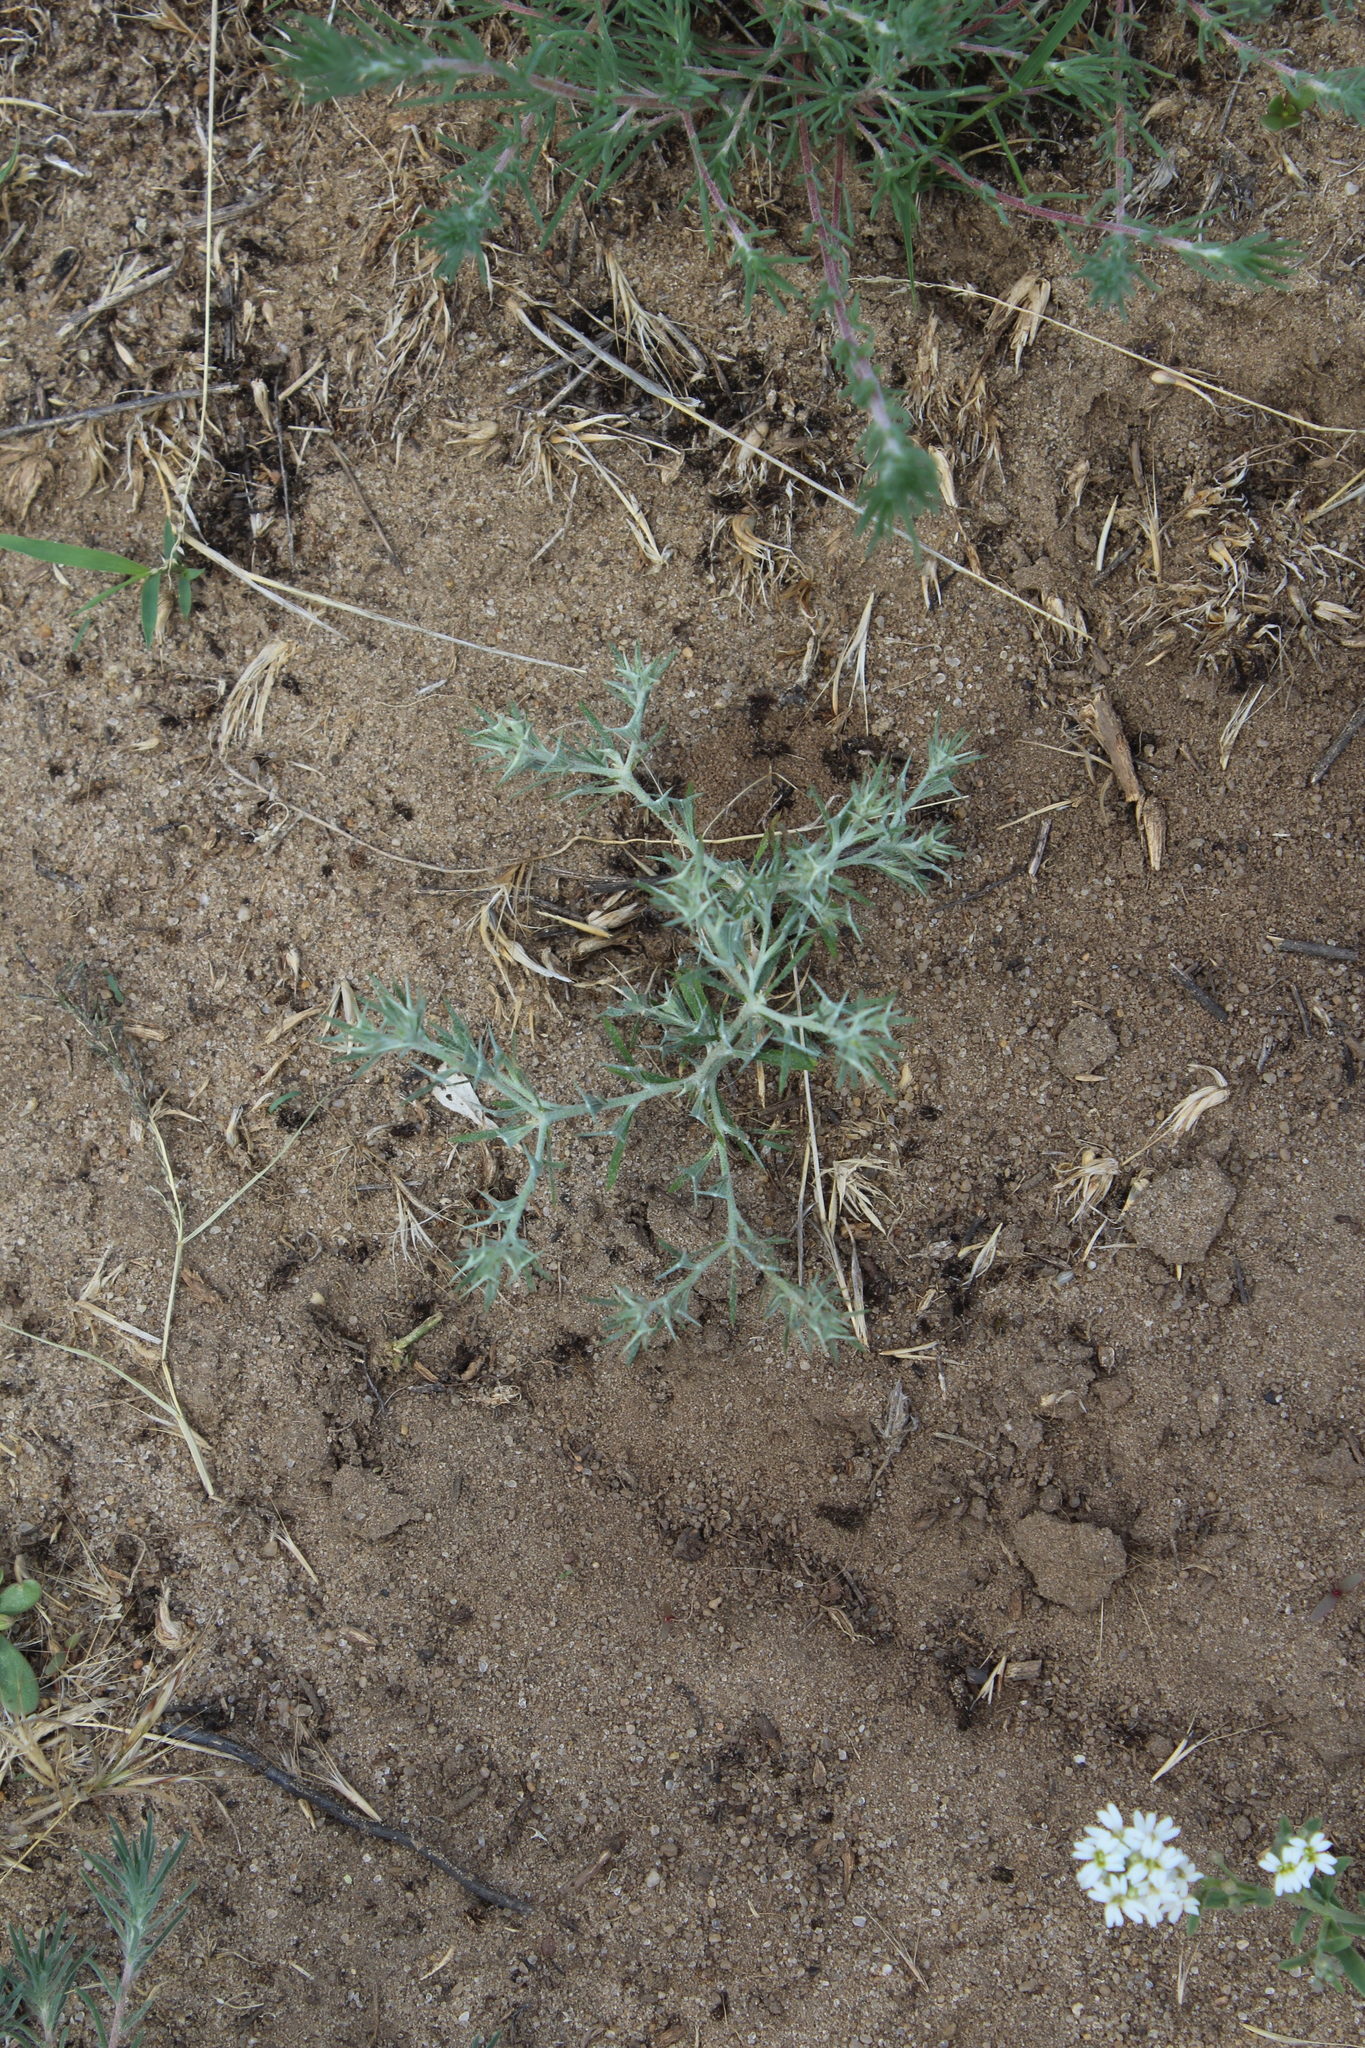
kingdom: Plantae
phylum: Tracheophyta
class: Magnoliopsida
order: Caryophyllales
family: Amaranthaceae
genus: Ceratocarpus
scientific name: Ceratocarpus arenarius
